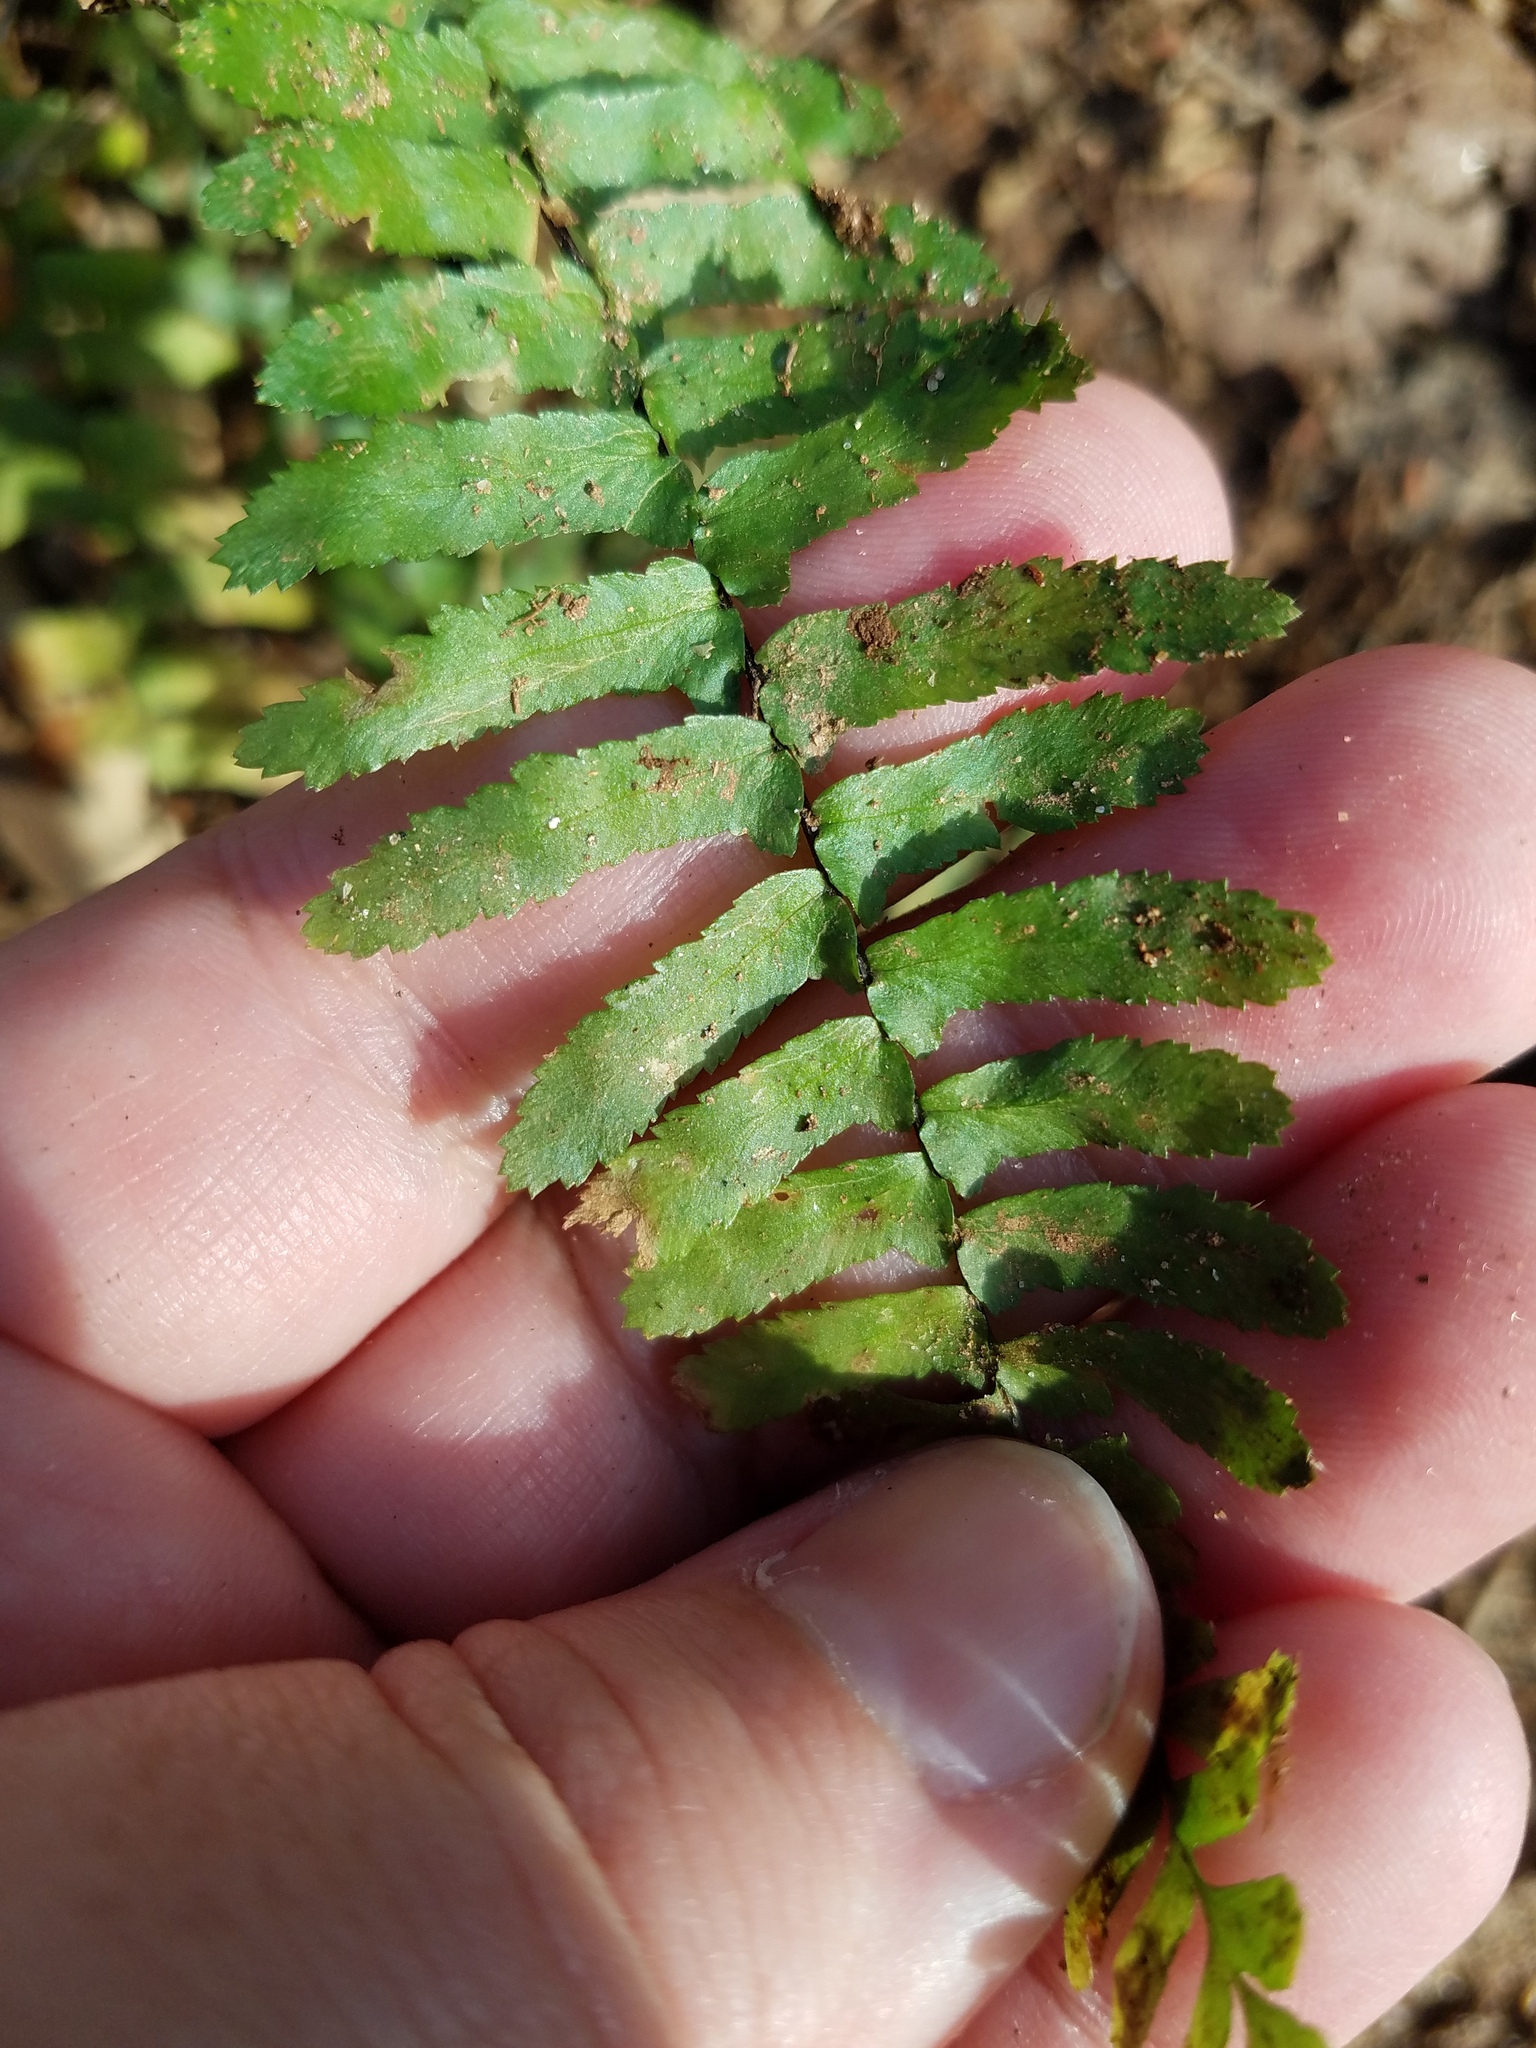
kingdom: Plantae
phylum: Tracheophyta
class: Polypodiopsida
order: Polypodiales
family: Aspleniaceae
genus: Asplenium
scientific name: Asplenium platyneuron
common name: Ebony spleenwort
